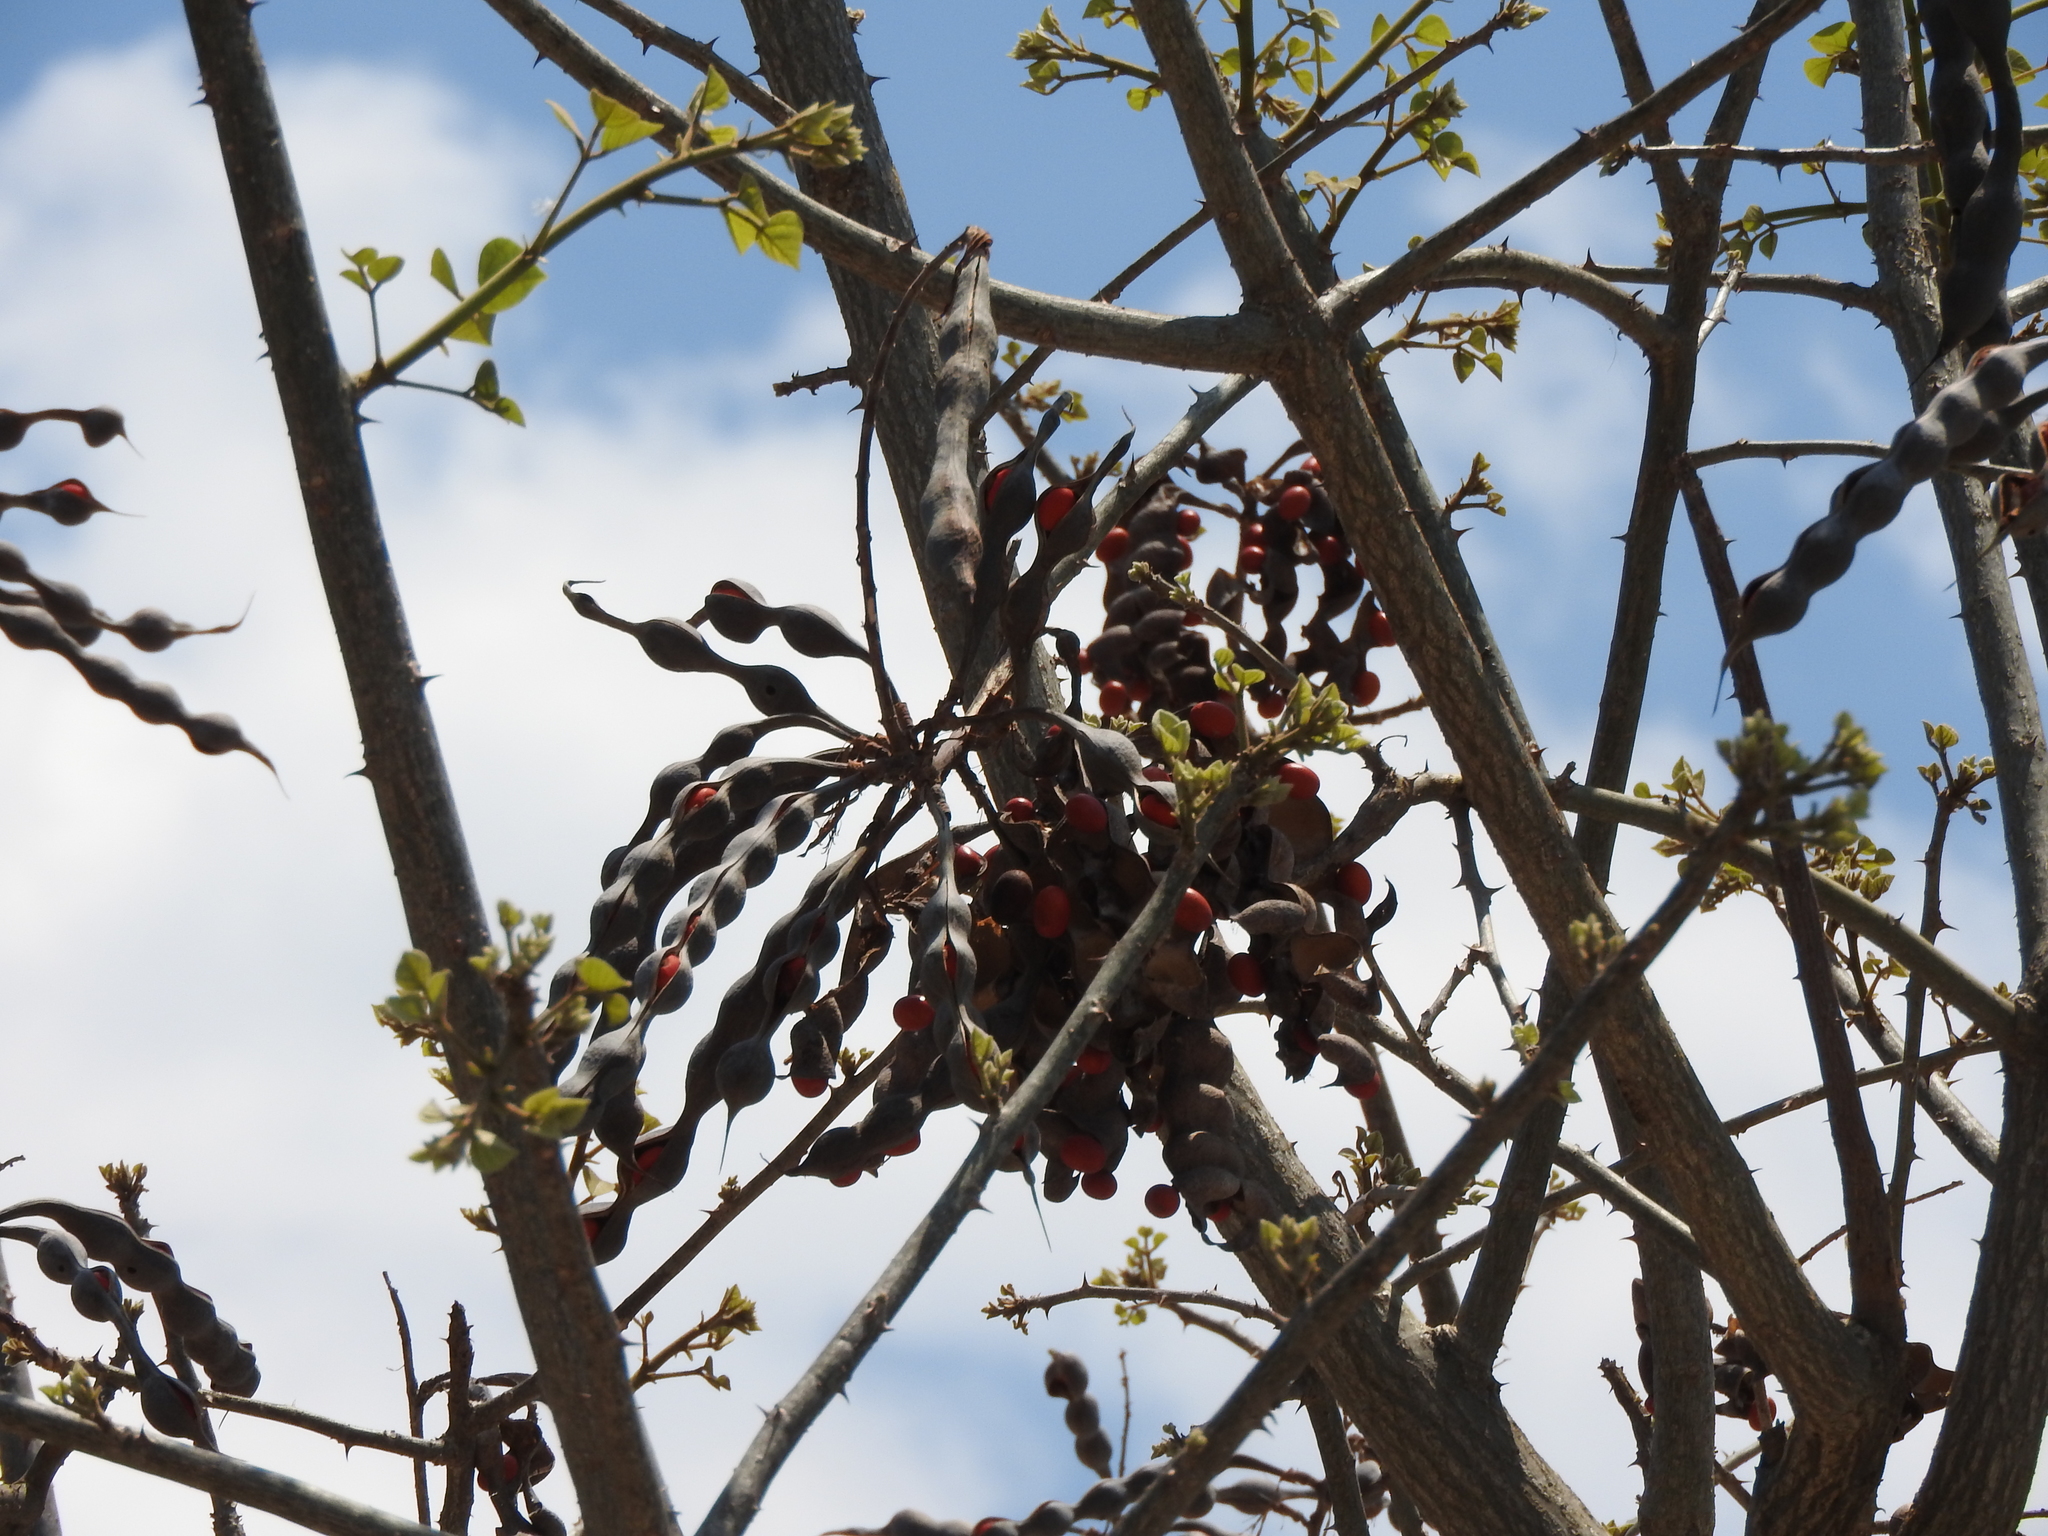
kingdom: Plantae
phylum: Tracheophyta
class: Magnoliopsida
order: Fabales
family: Fabaceae
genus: Erythrina
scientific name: Erythrina americana
